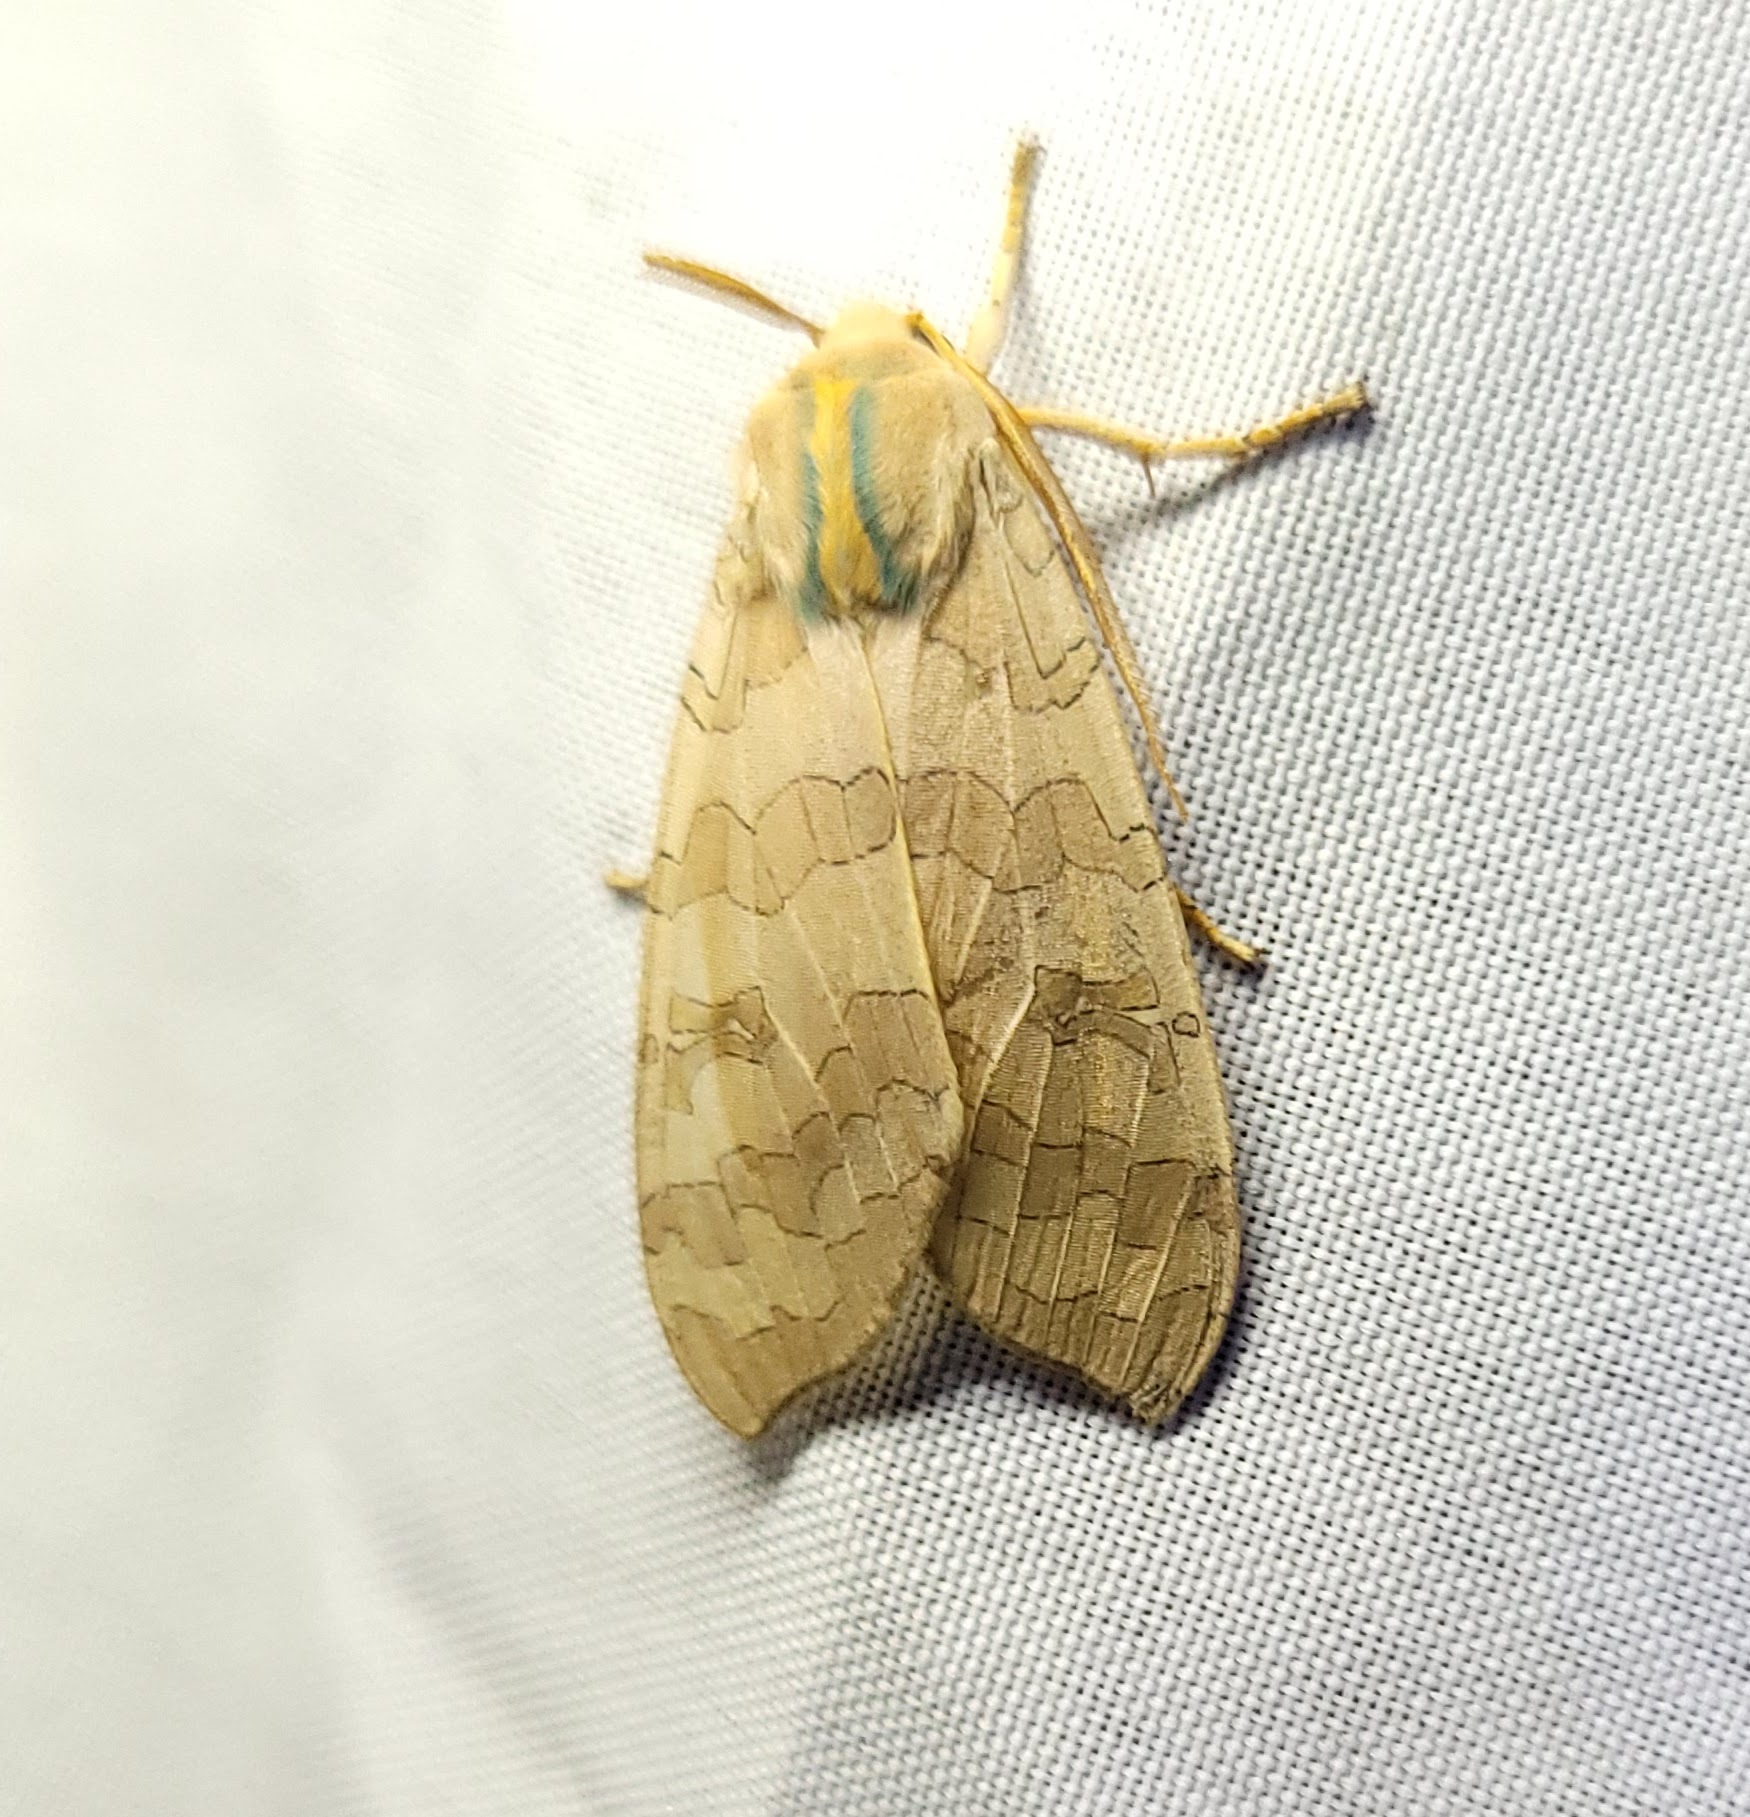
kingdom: Animalia
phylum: Arthropoda
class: Insecta
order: Lepidoptera
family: Erebidae
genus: Halysidota
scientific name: Halysidota
